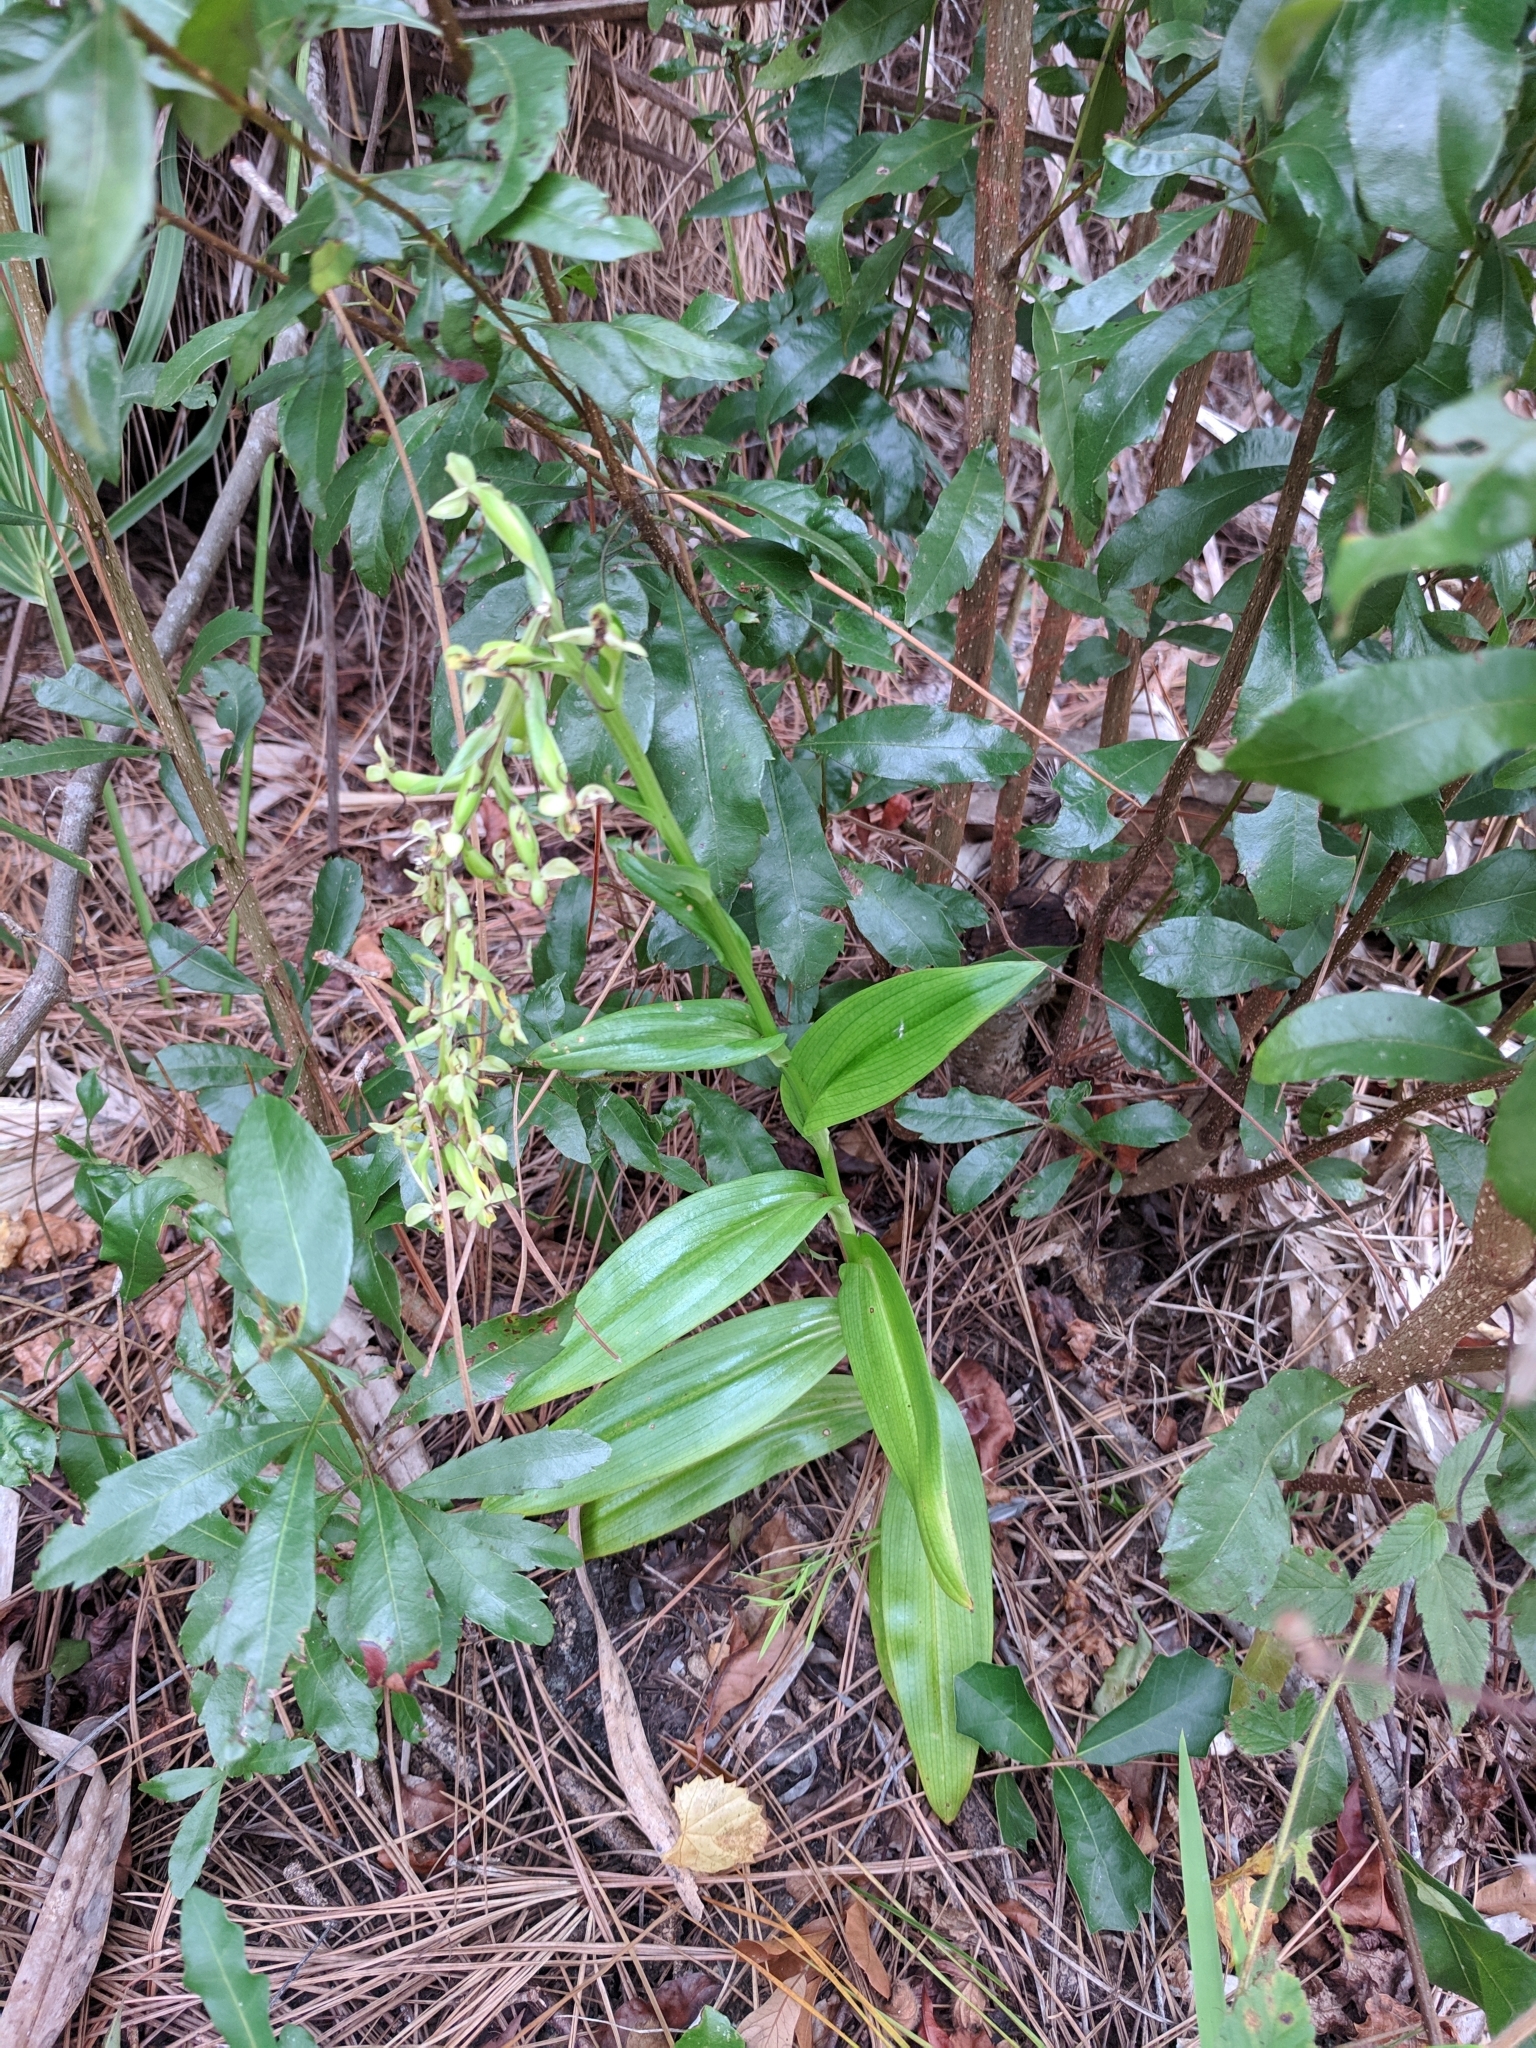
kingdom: Plantae
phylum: Tracheophyta
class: Liliopsida
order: Asparagales
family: Orchidaceae
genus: Habenaria
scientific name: Habenaria floribunda
